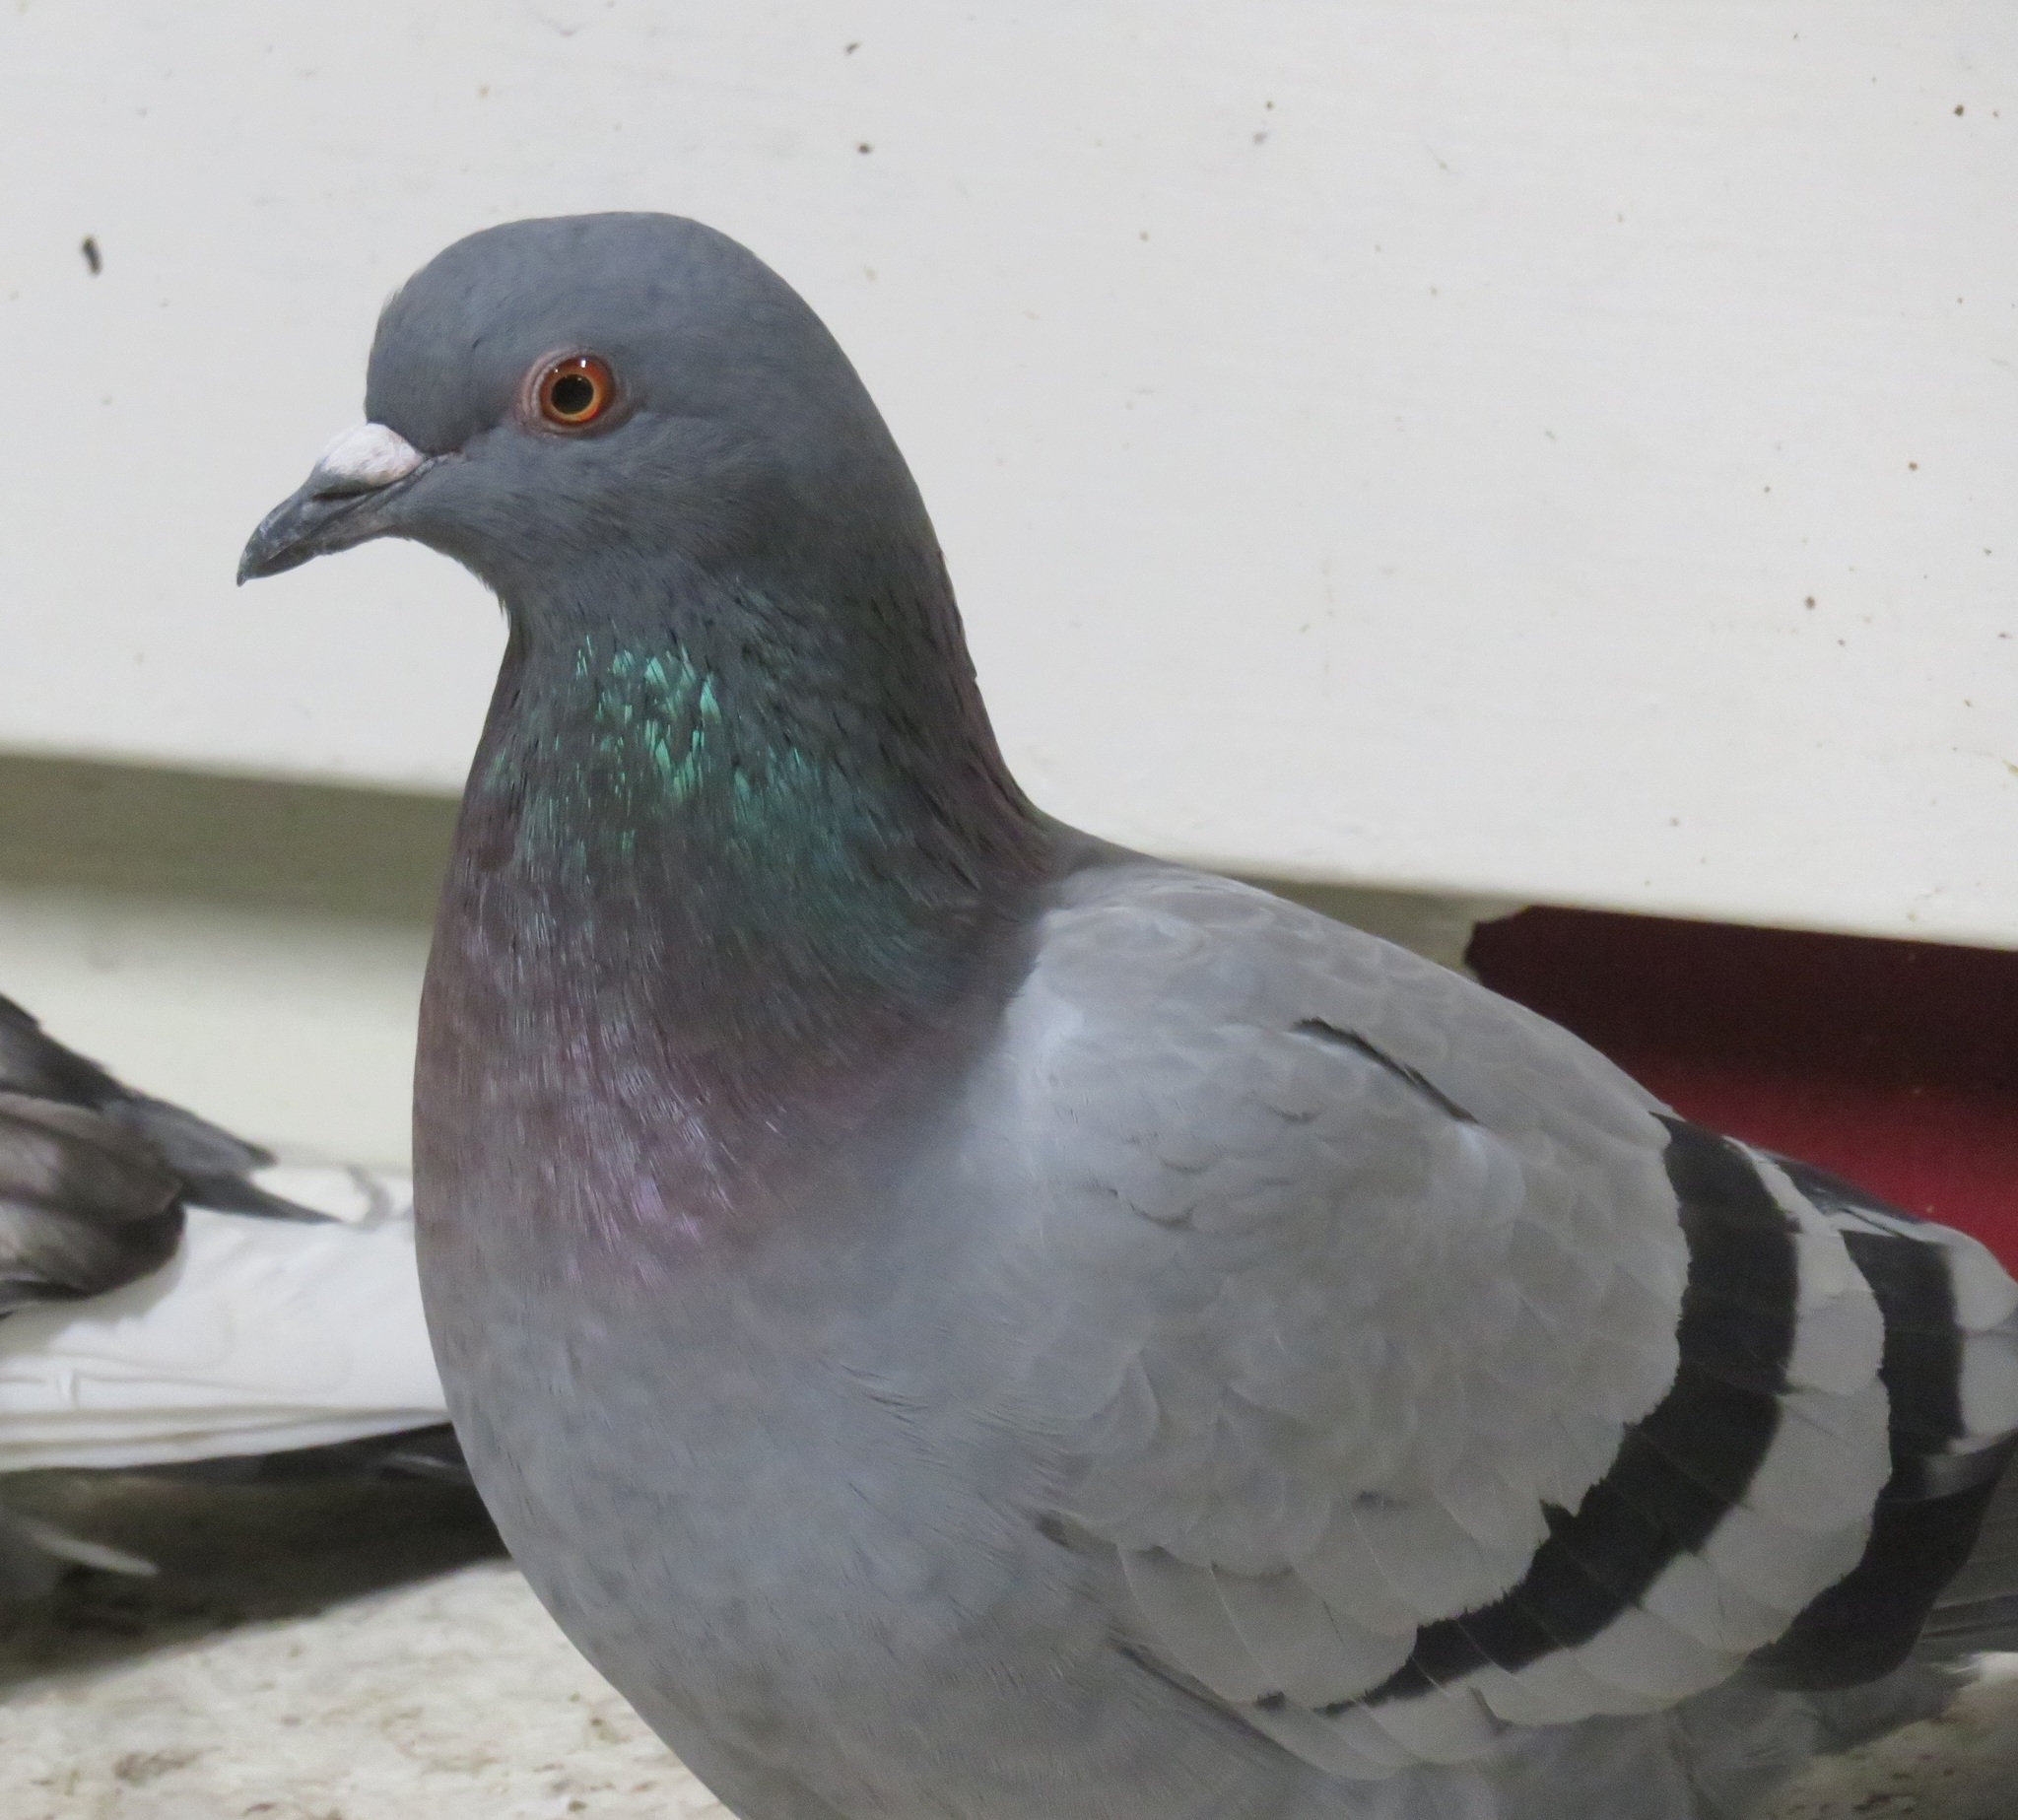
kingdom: Animalia
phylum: Chordata
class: Aves
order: Columbiformes
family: Columbidae
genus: Columba
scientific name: Columba livia
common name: Rock pigeon
